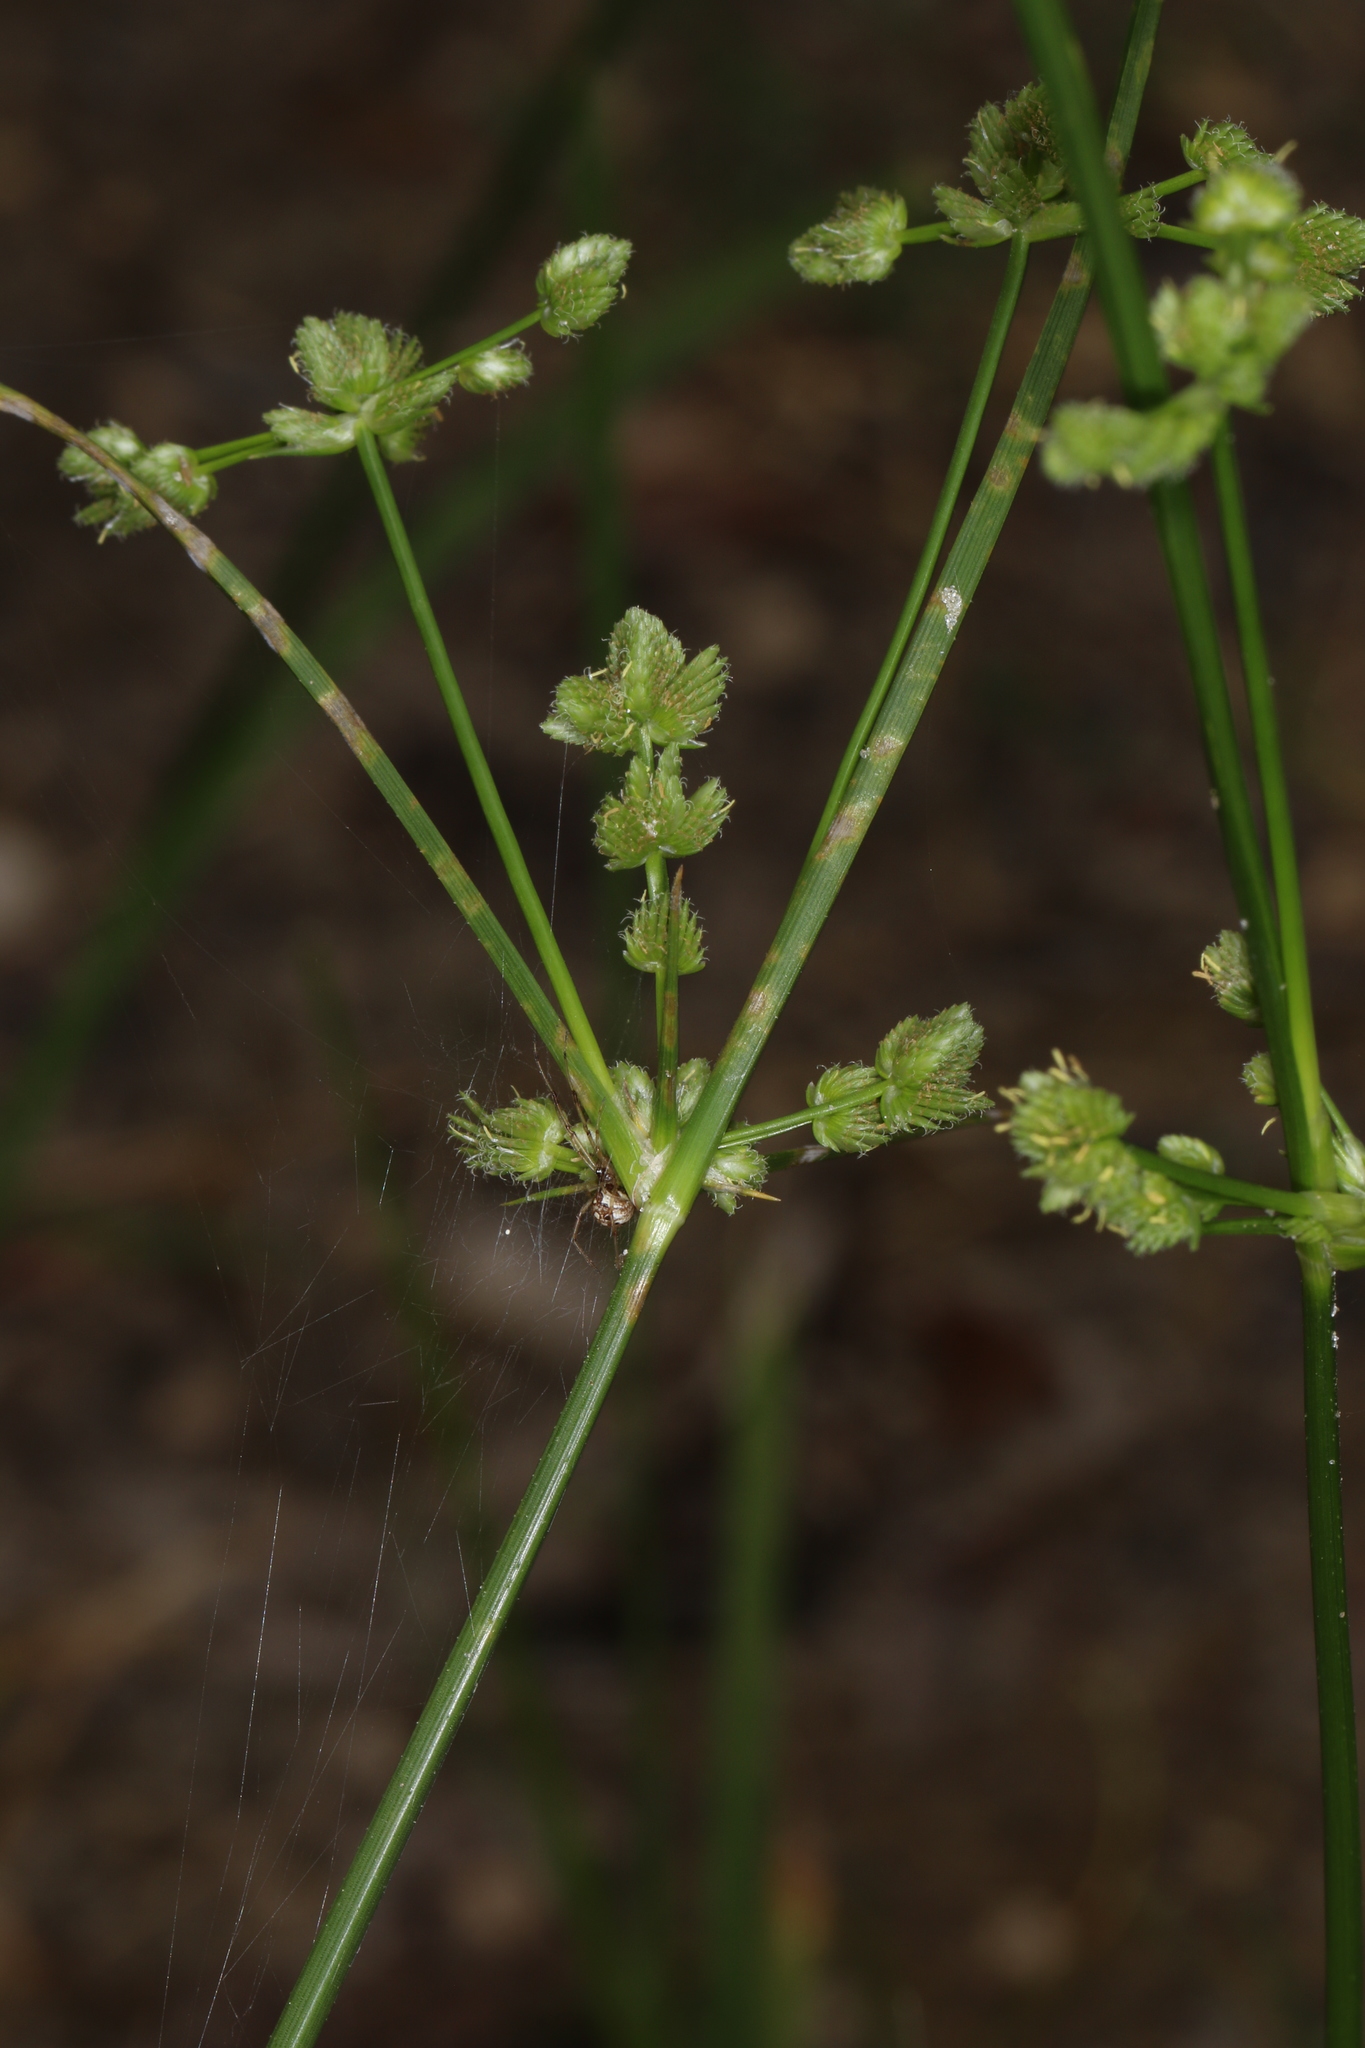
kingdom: Plantae
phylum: Tracheophyta
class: Liliopsida
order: Poales
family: Cyperaceae
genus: Cyperus
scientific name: Cyperus surinamensis
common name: Tropical flat sedge
